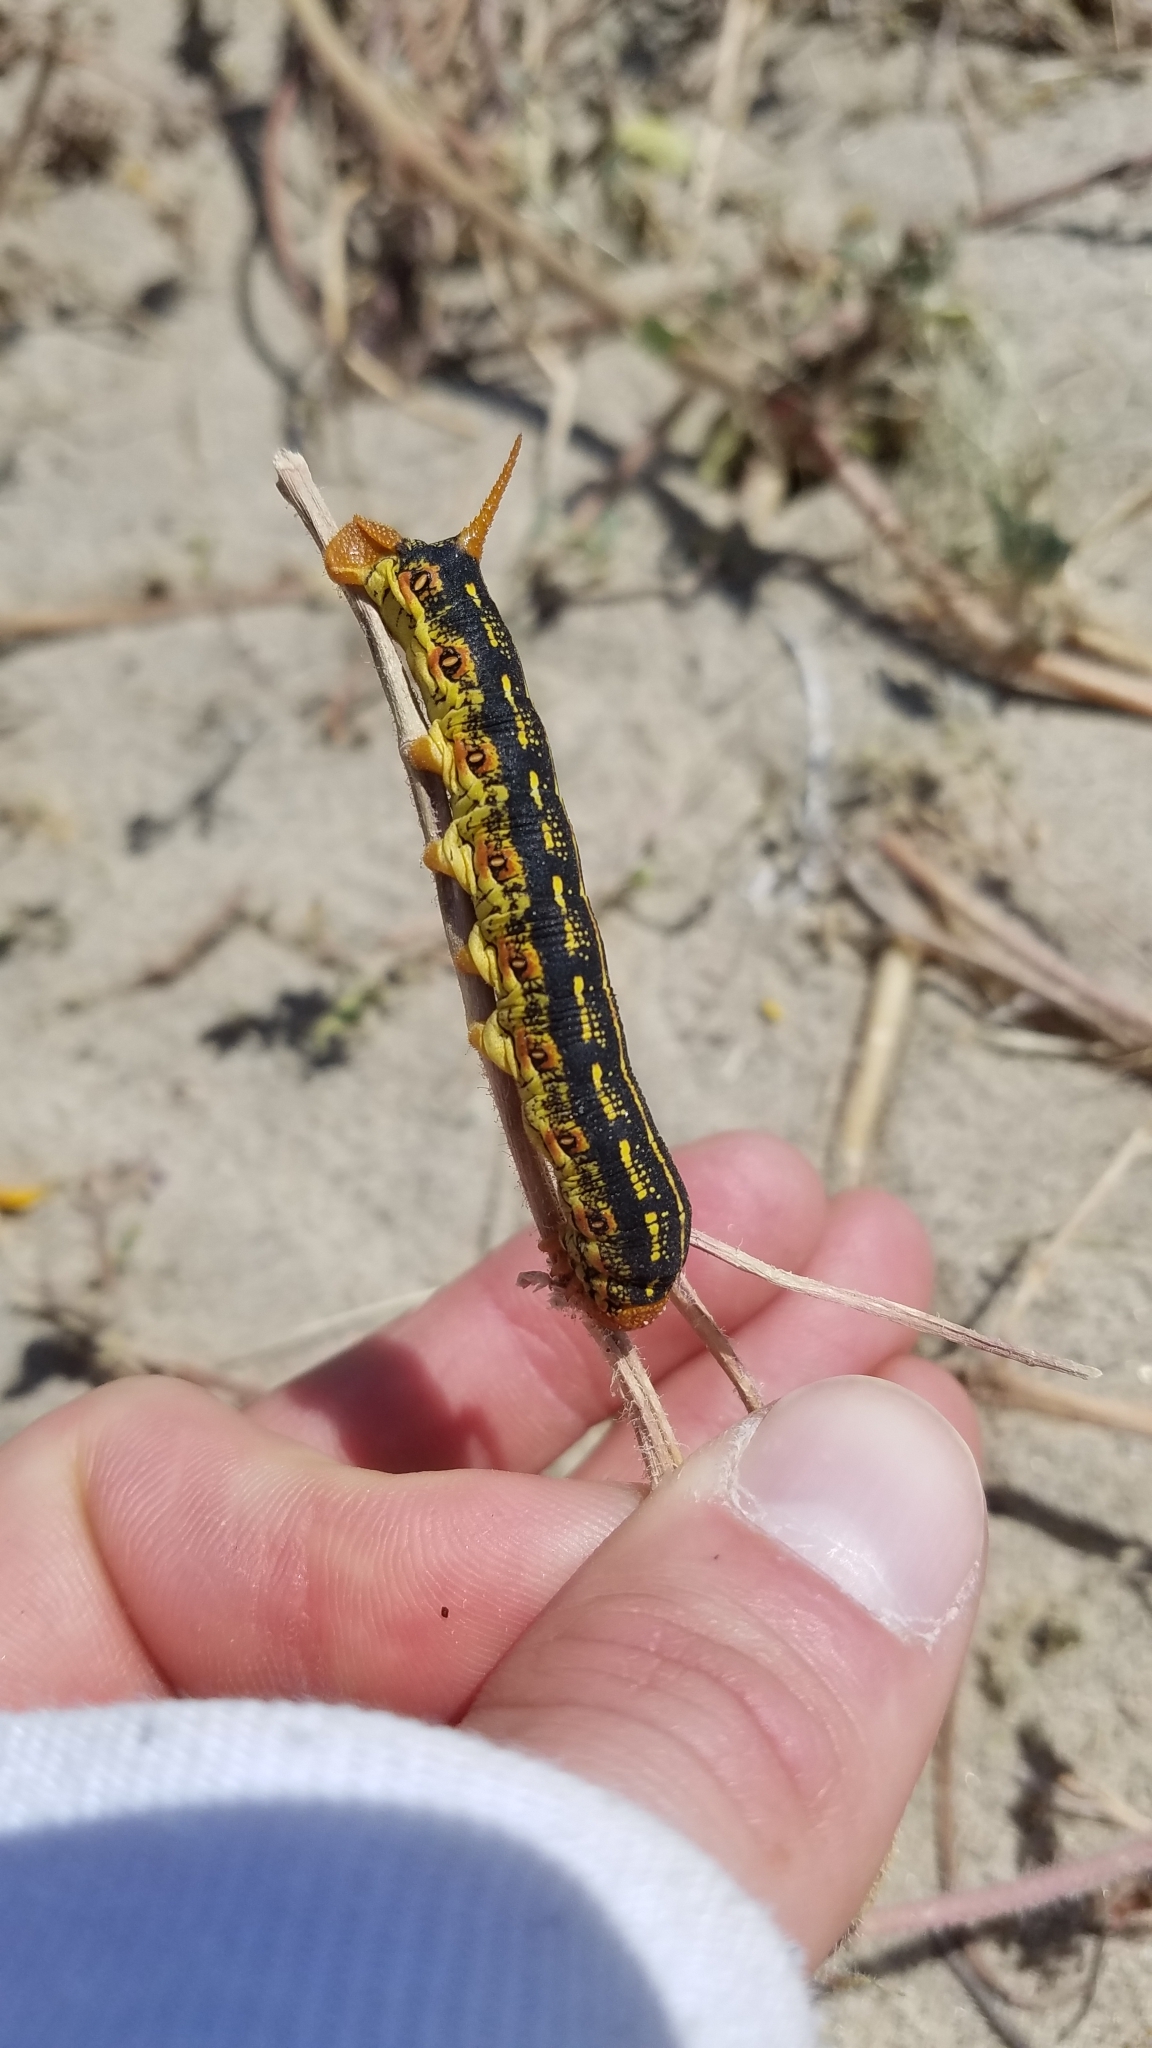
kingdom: Animalia
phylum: Arthropoda
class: Insecta
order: Lepidoptera
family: Sphingidae
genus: Hyles
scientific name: Hyles lineata
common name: White-lined sphinx
